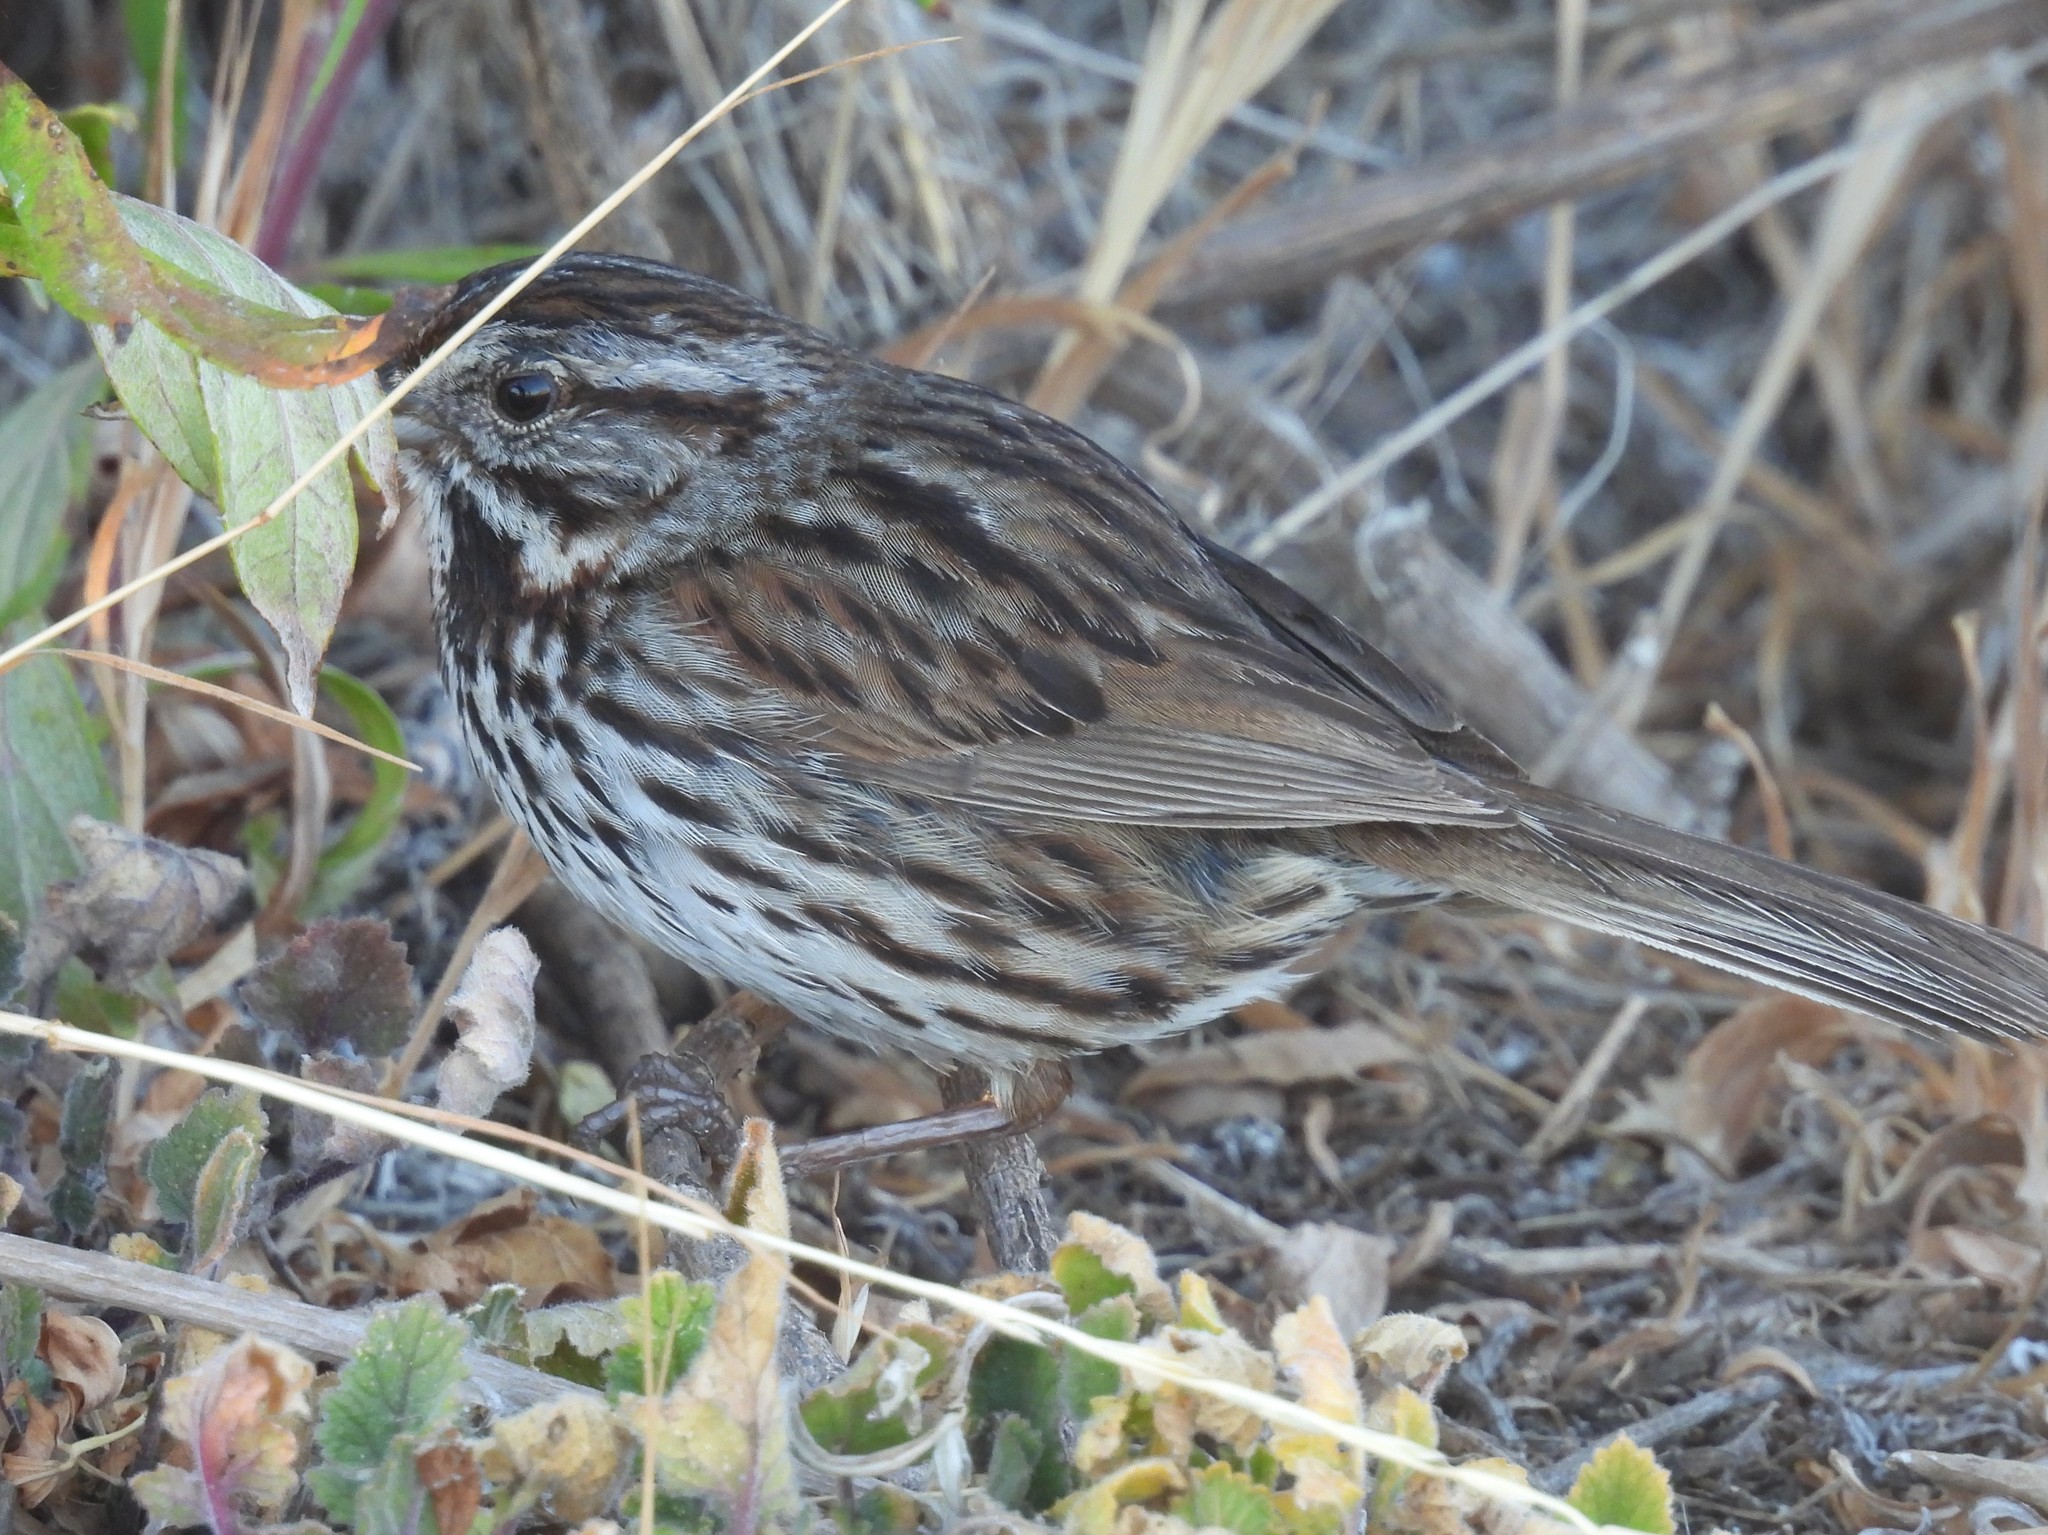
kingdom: Animalia
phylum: Chordata
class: Aves
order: Passeriformes
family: Passerellidae
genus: Melospiza
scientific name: Melospiza melodia
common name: Song sparrow
